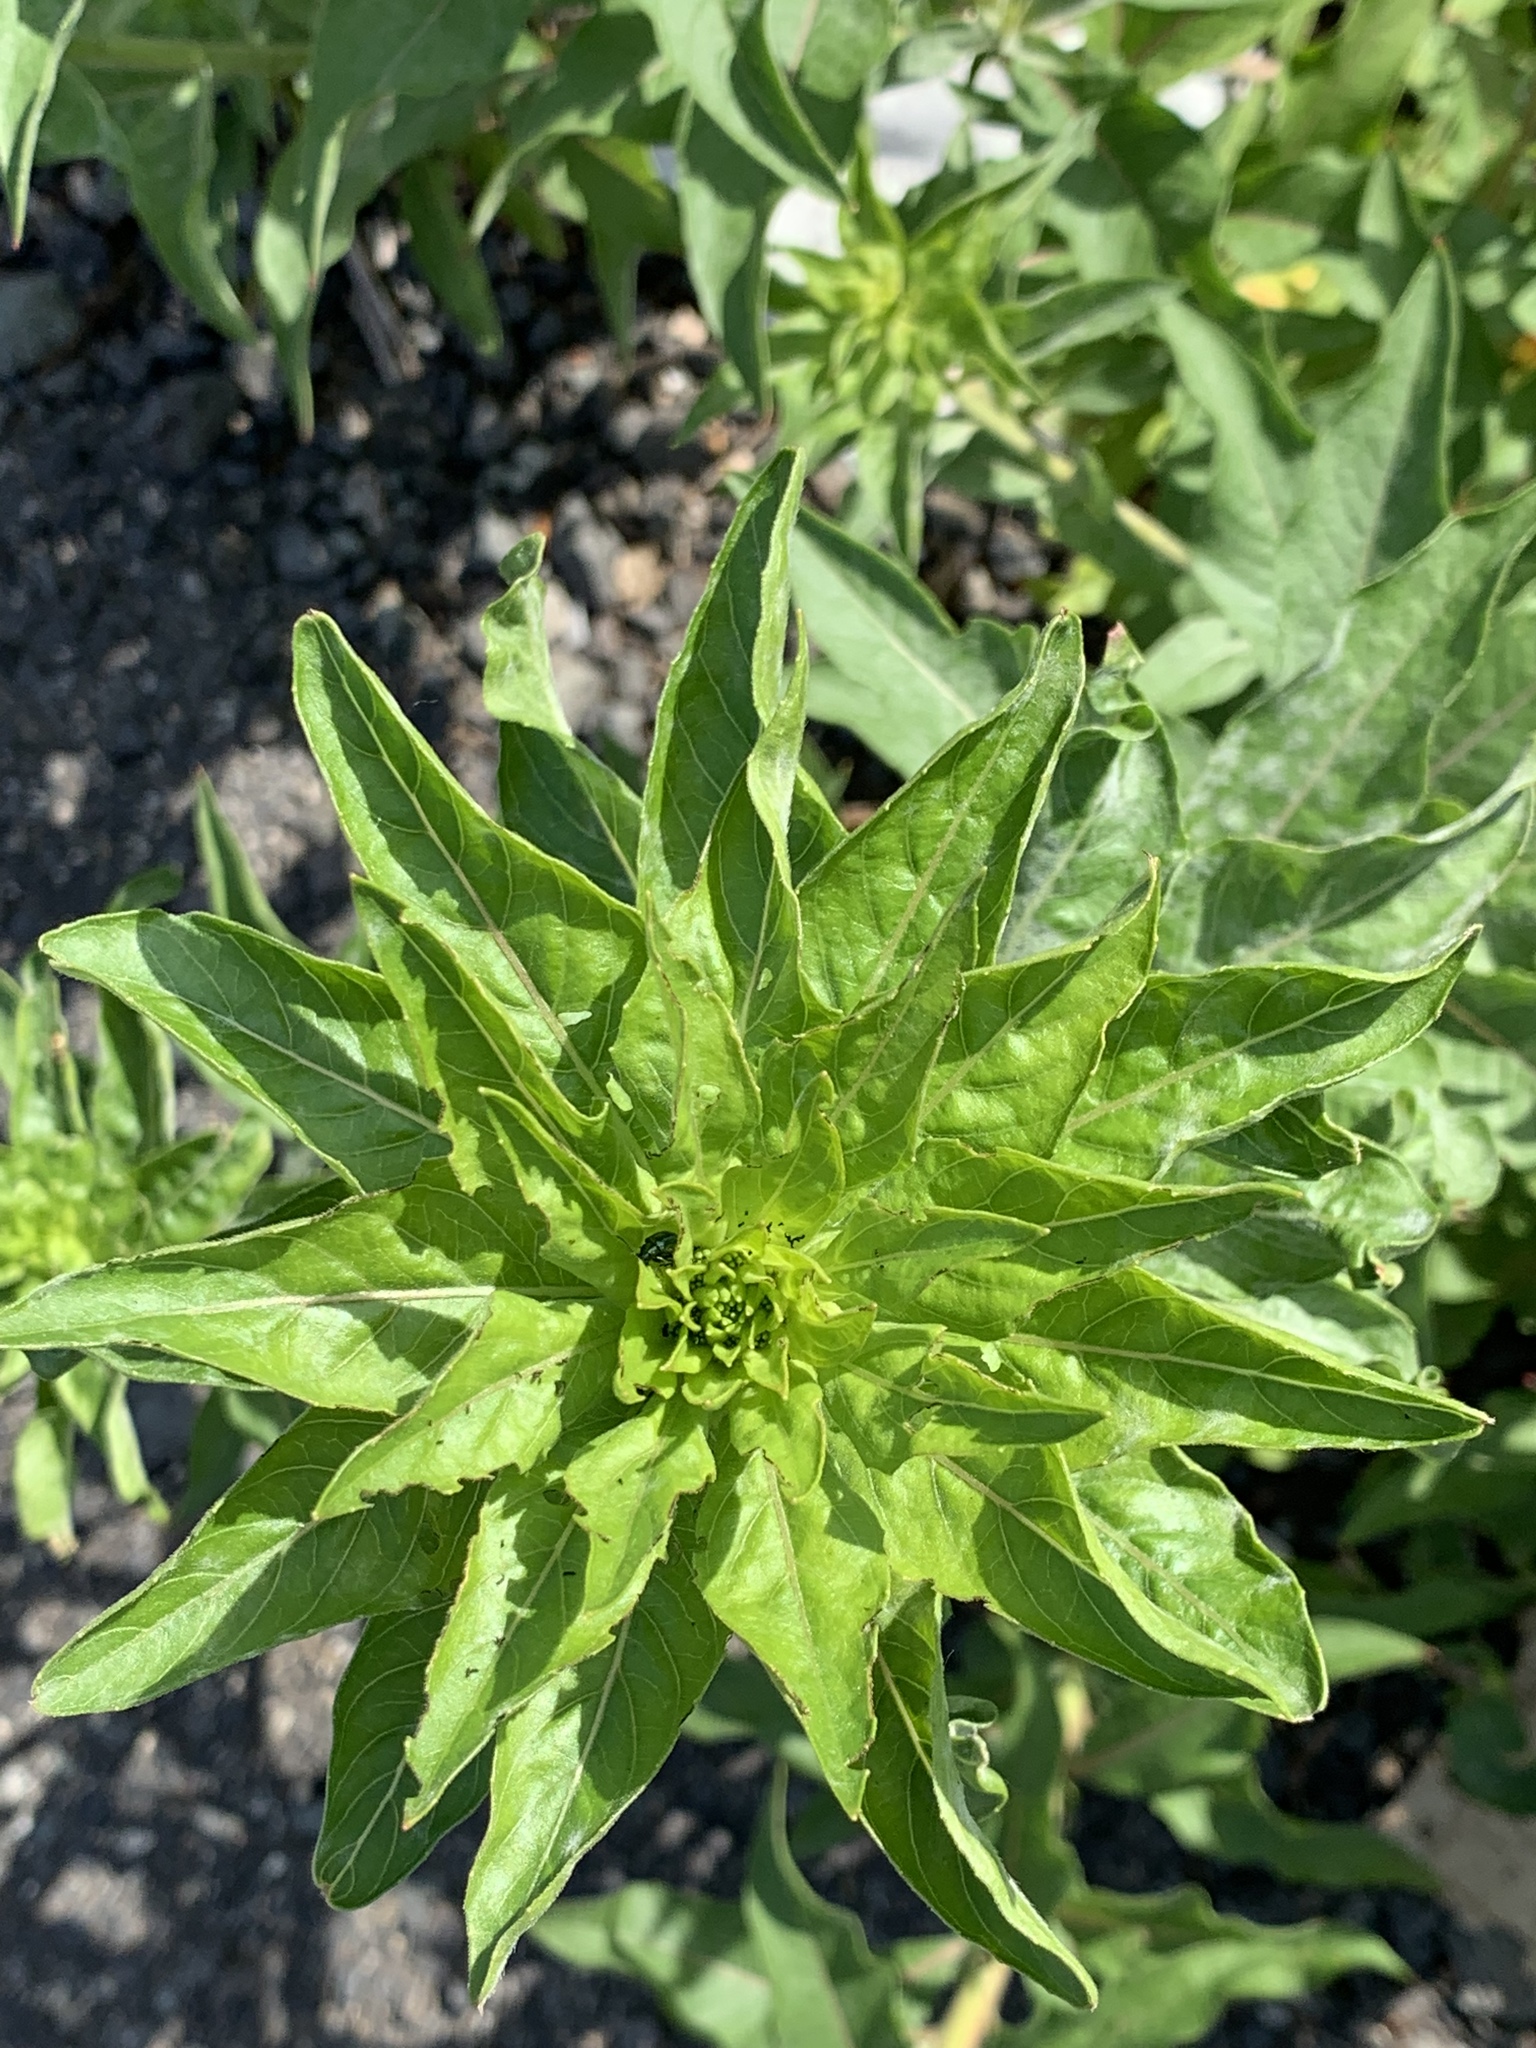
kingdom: Plantae
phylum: Tracheophyta
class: Magnoliopsida
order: Myrtales
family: Onagraceae
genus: Oenothera
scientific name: Oenothera biennis
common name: Common evening-primrose
